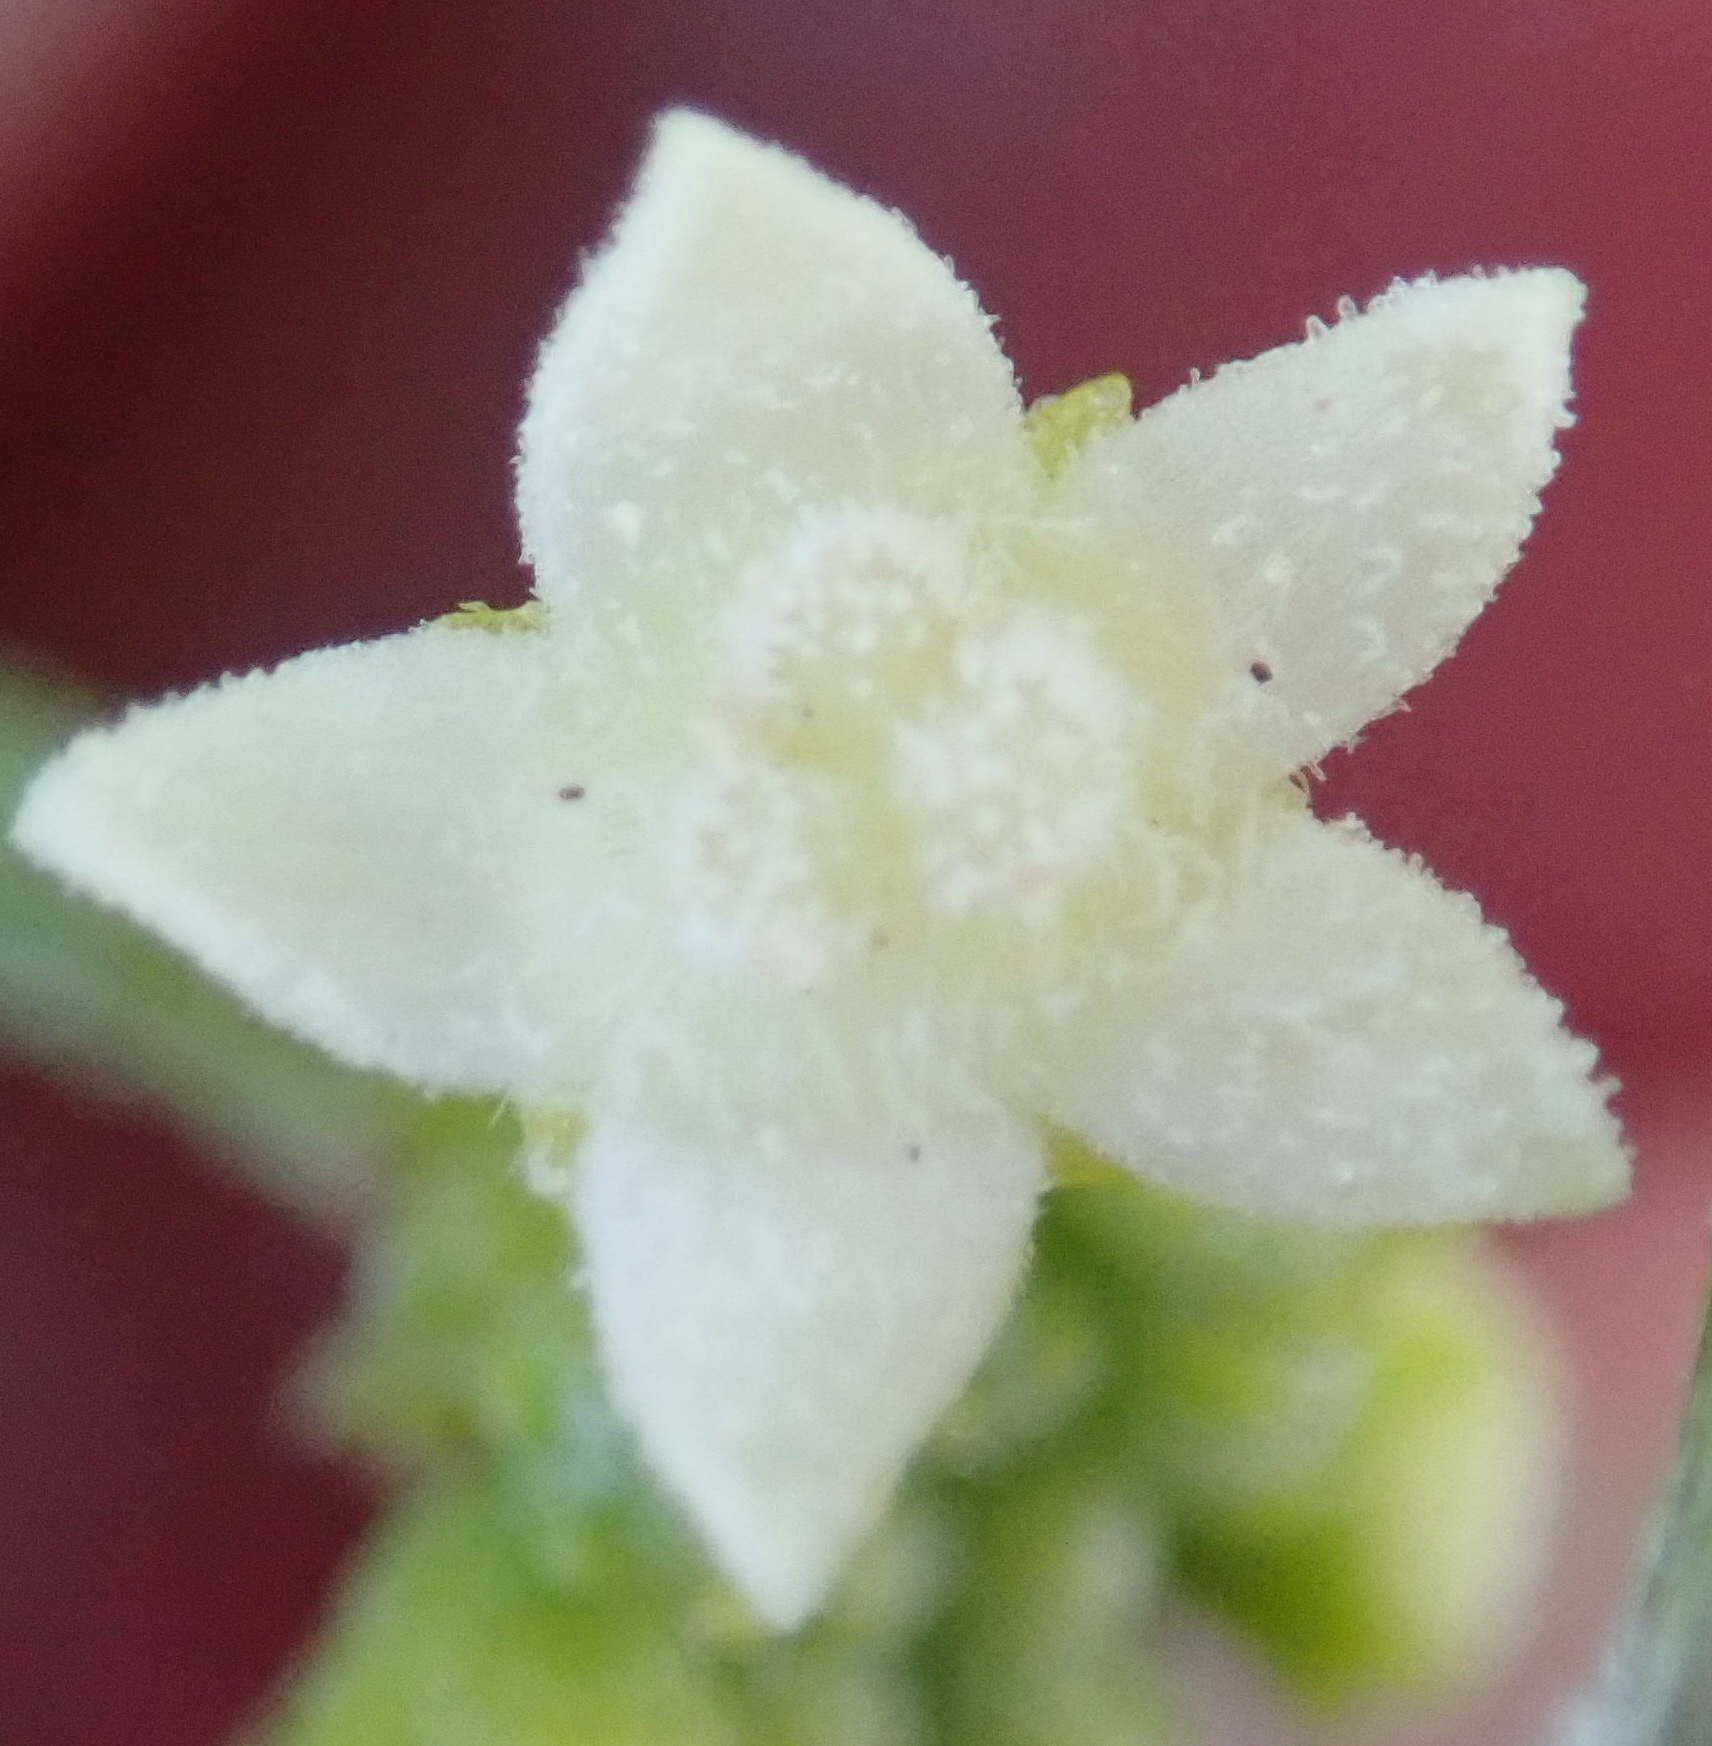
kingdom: Plantae
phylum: Tracheophyta
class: Magnoliopsida
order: Cucurbitales
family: Cucurbitaceae
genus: Zehneria
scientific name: Zehneria scabra
